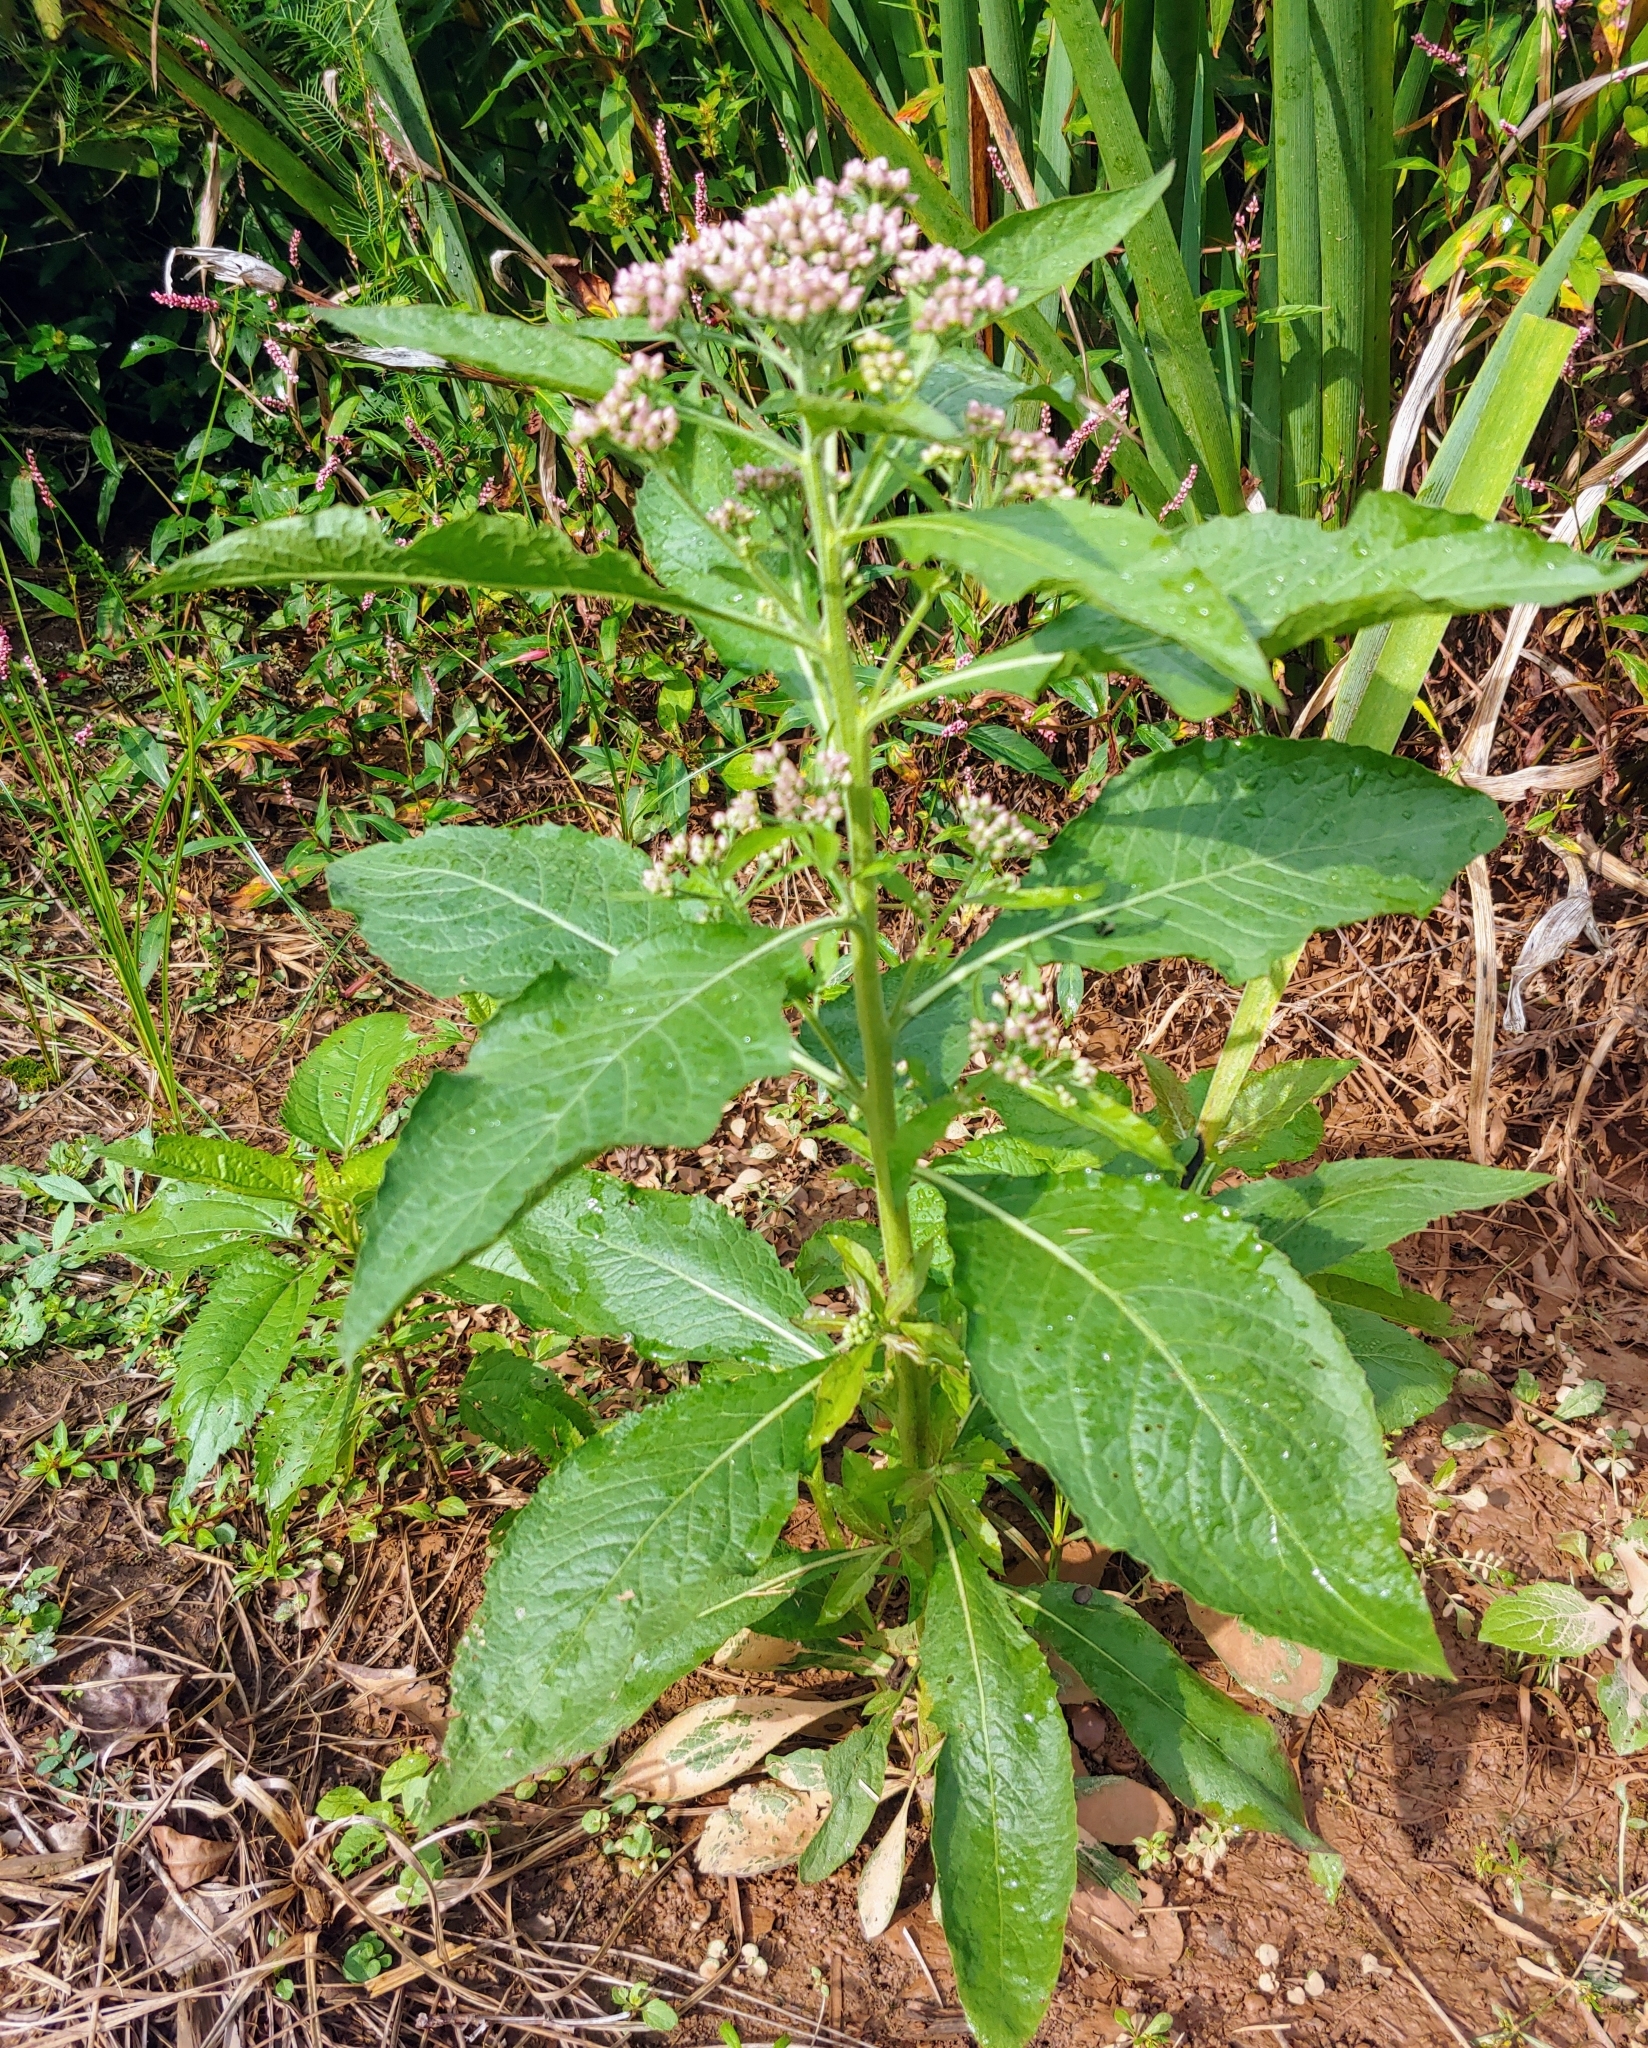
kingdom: Plantae
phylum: Tracheophyta
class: Magnoliopsida
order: Asterales
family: Asteraceae
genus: Pluchea
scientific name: Pluchea camphorata
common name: Camphor pluchea
